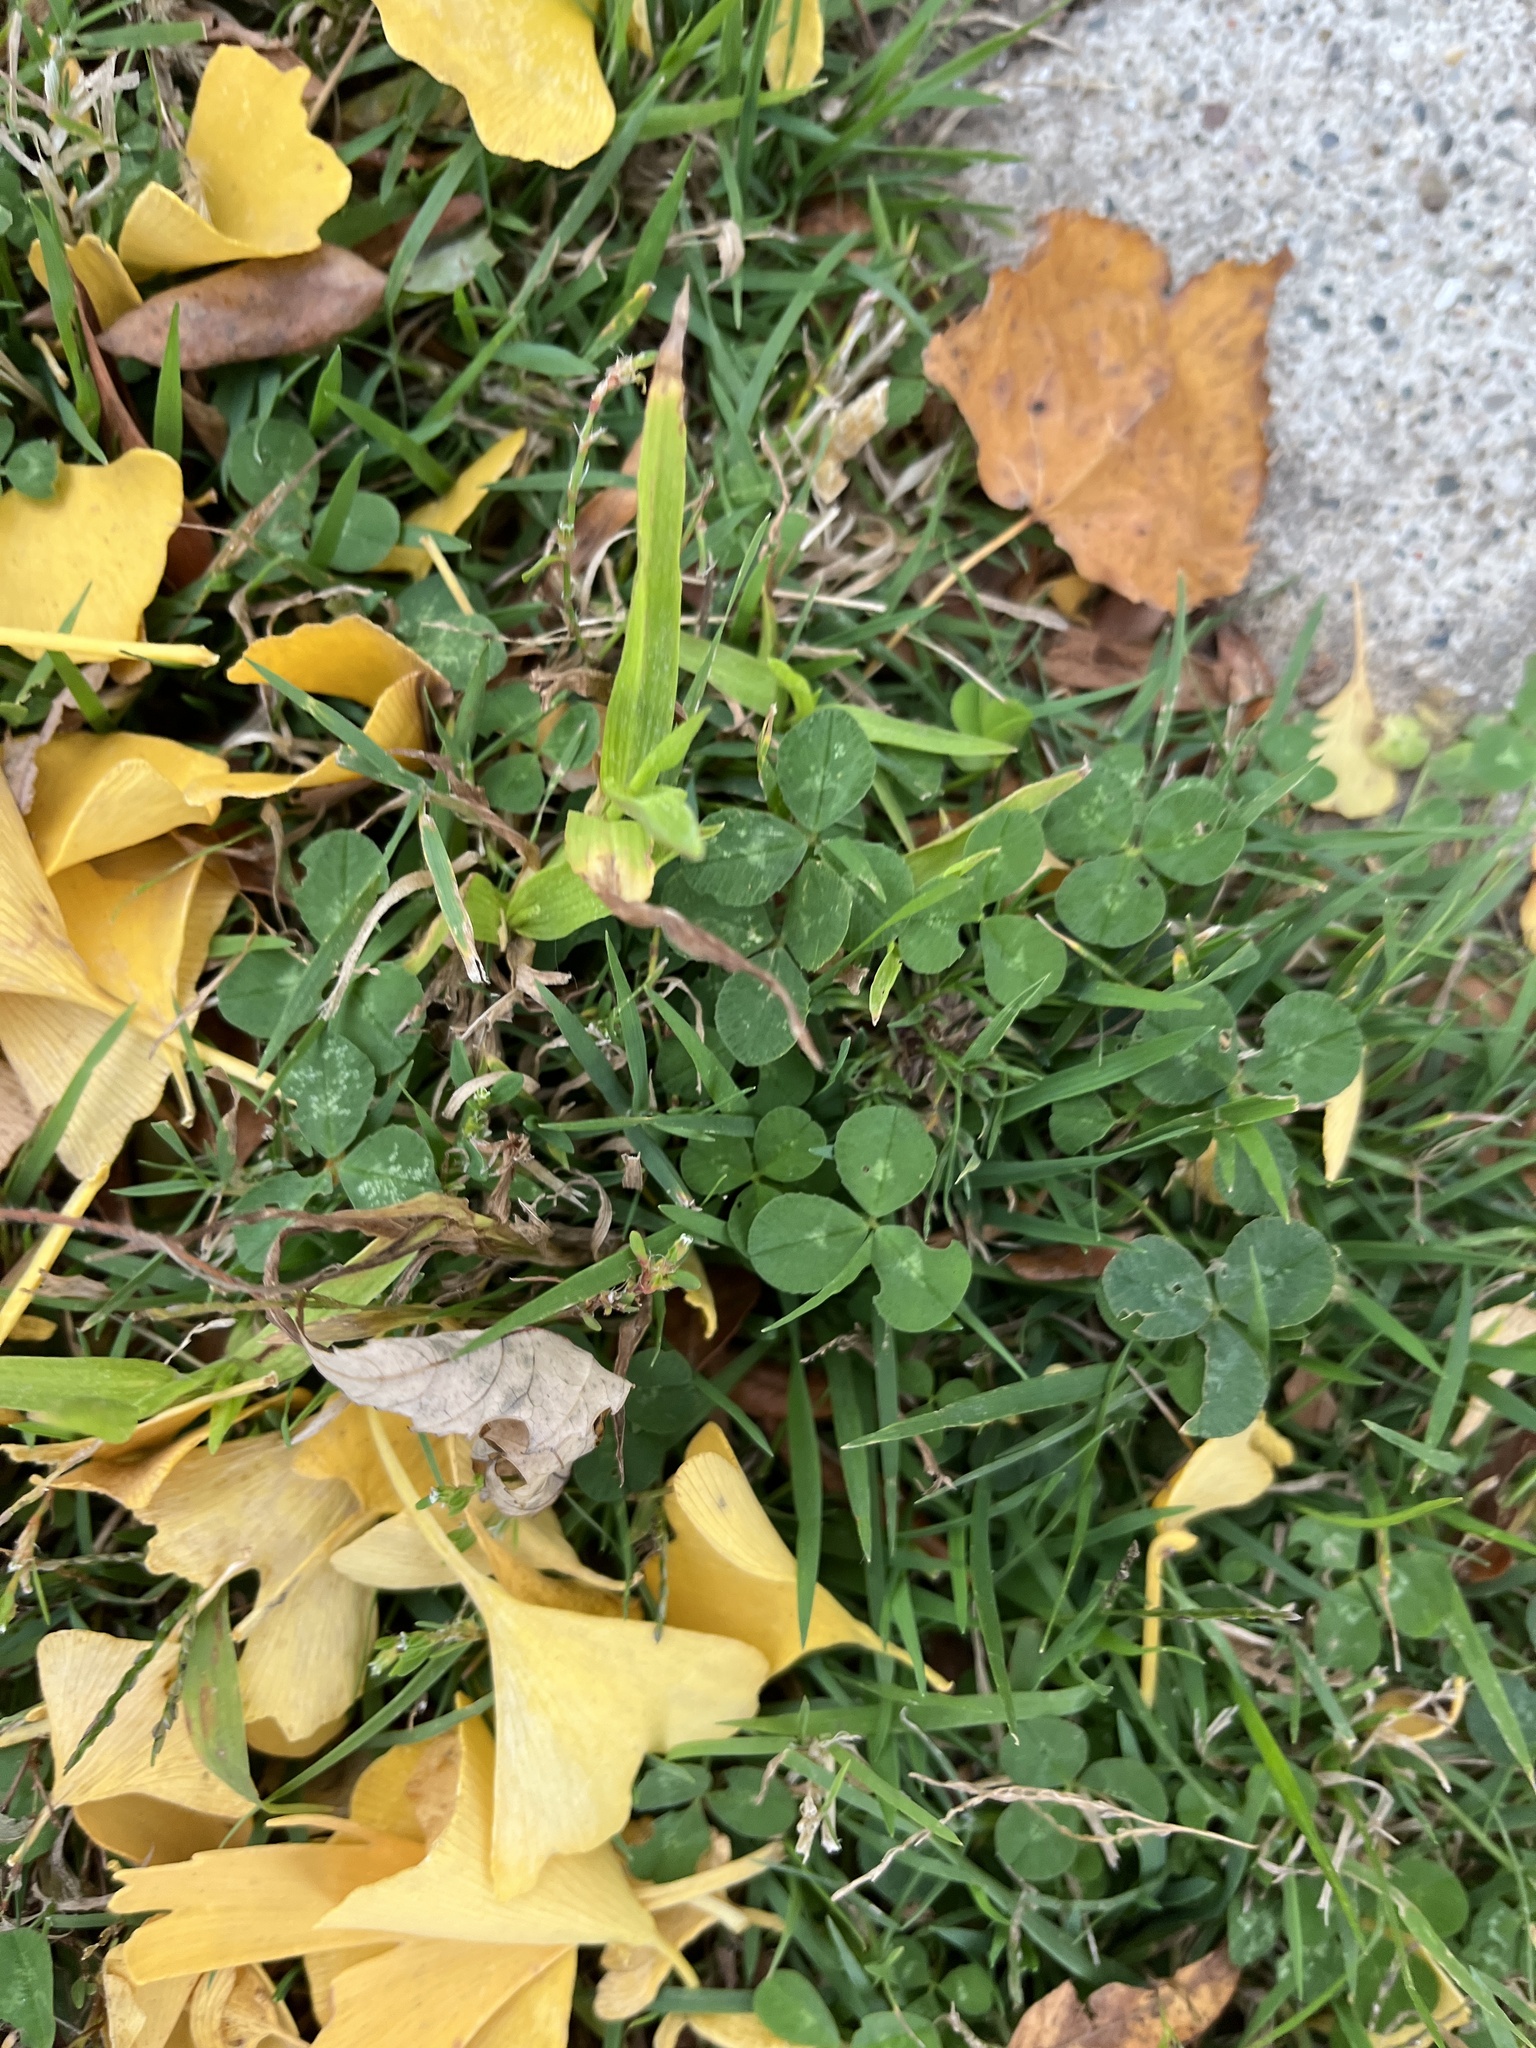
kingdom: Plantae
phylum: Tracheophyta
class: Magnoliopsida
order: Fabales
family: Fabaceae
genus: Trifolium
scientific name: Trifolium repens
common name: White clover
